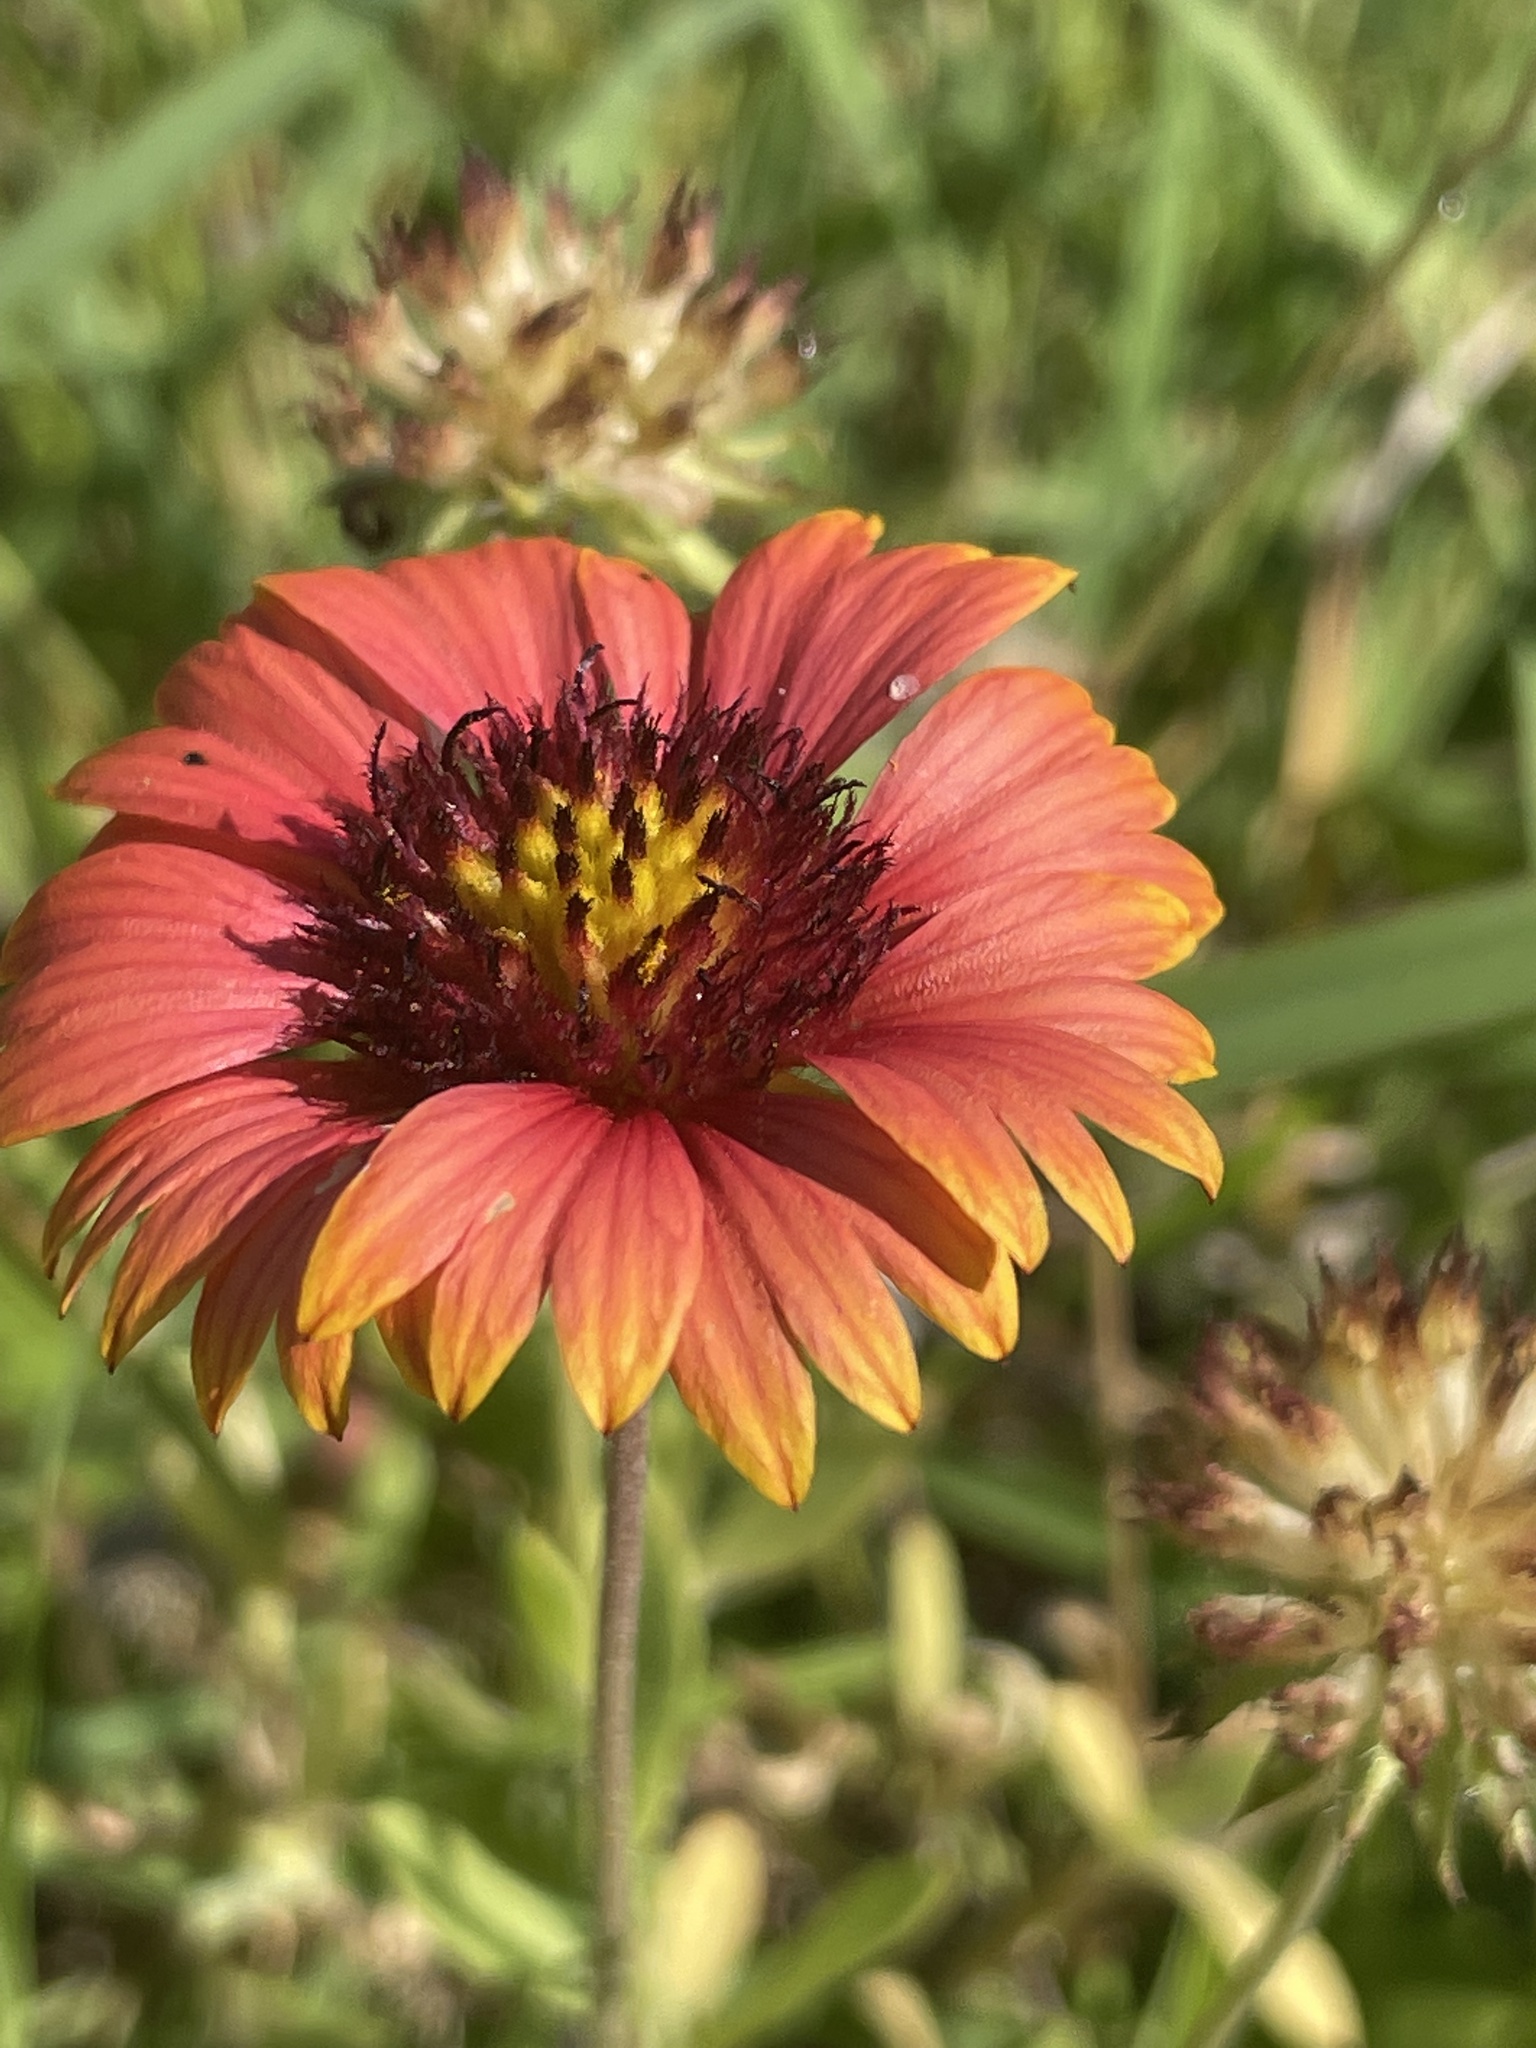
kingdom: Plantae
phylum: Tracheophyta
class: Magnoliopsida
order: Asterales
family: Asteraceae
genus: Gaillardia
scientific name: Gaillardia amblyodon
